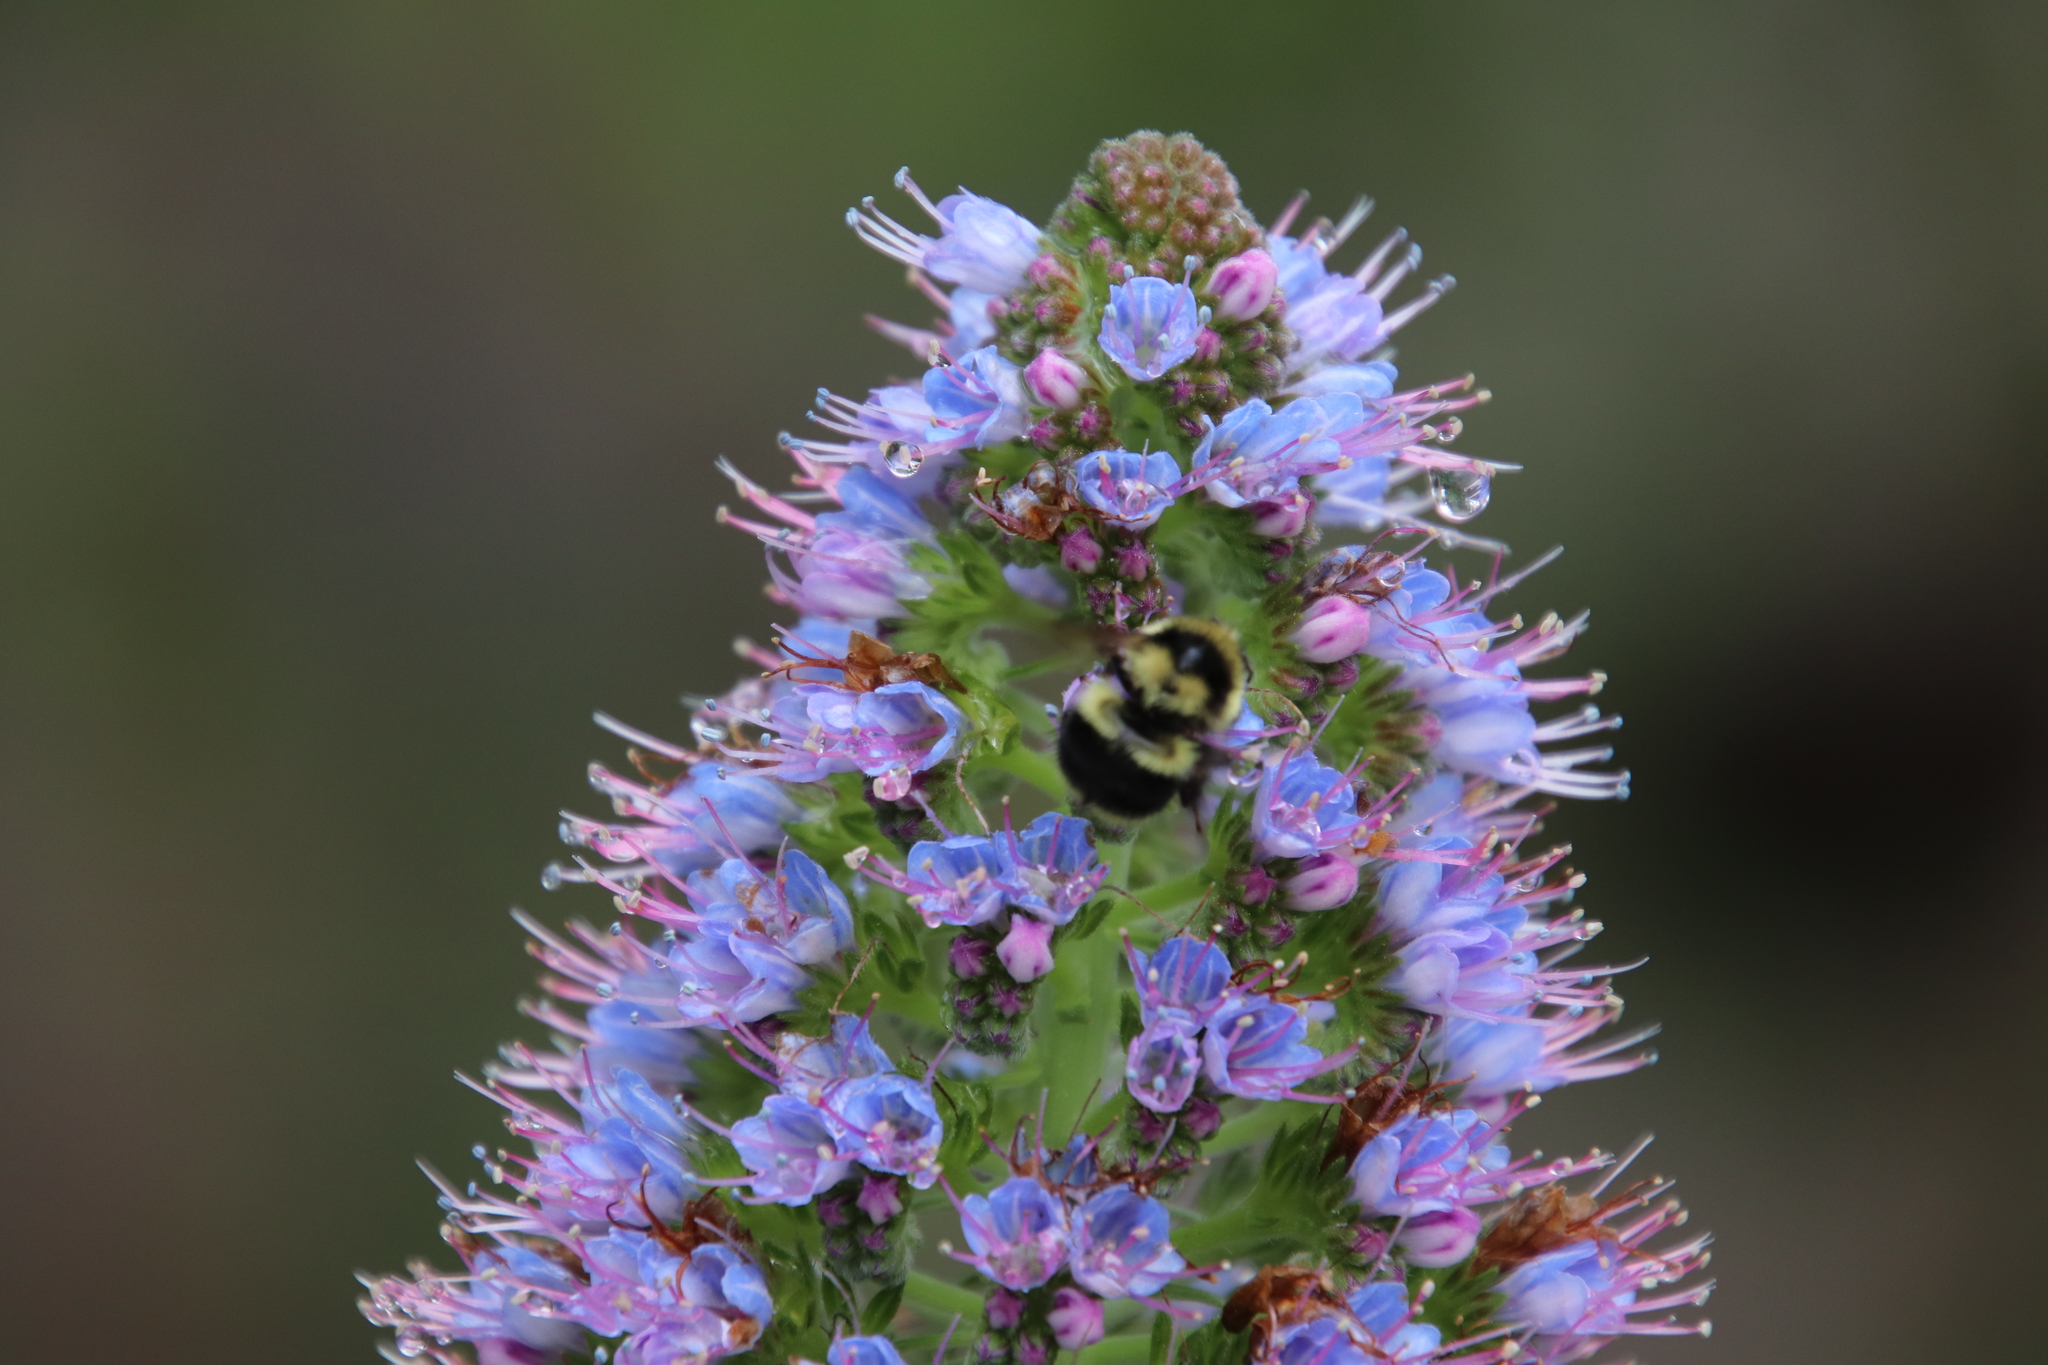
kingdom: Animalia
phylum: Arthropoda
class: Insecta
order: Hymenoptera
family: Apidae
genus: Bombus
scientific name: Bombus melanopygus
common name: Black tail bumble bee
